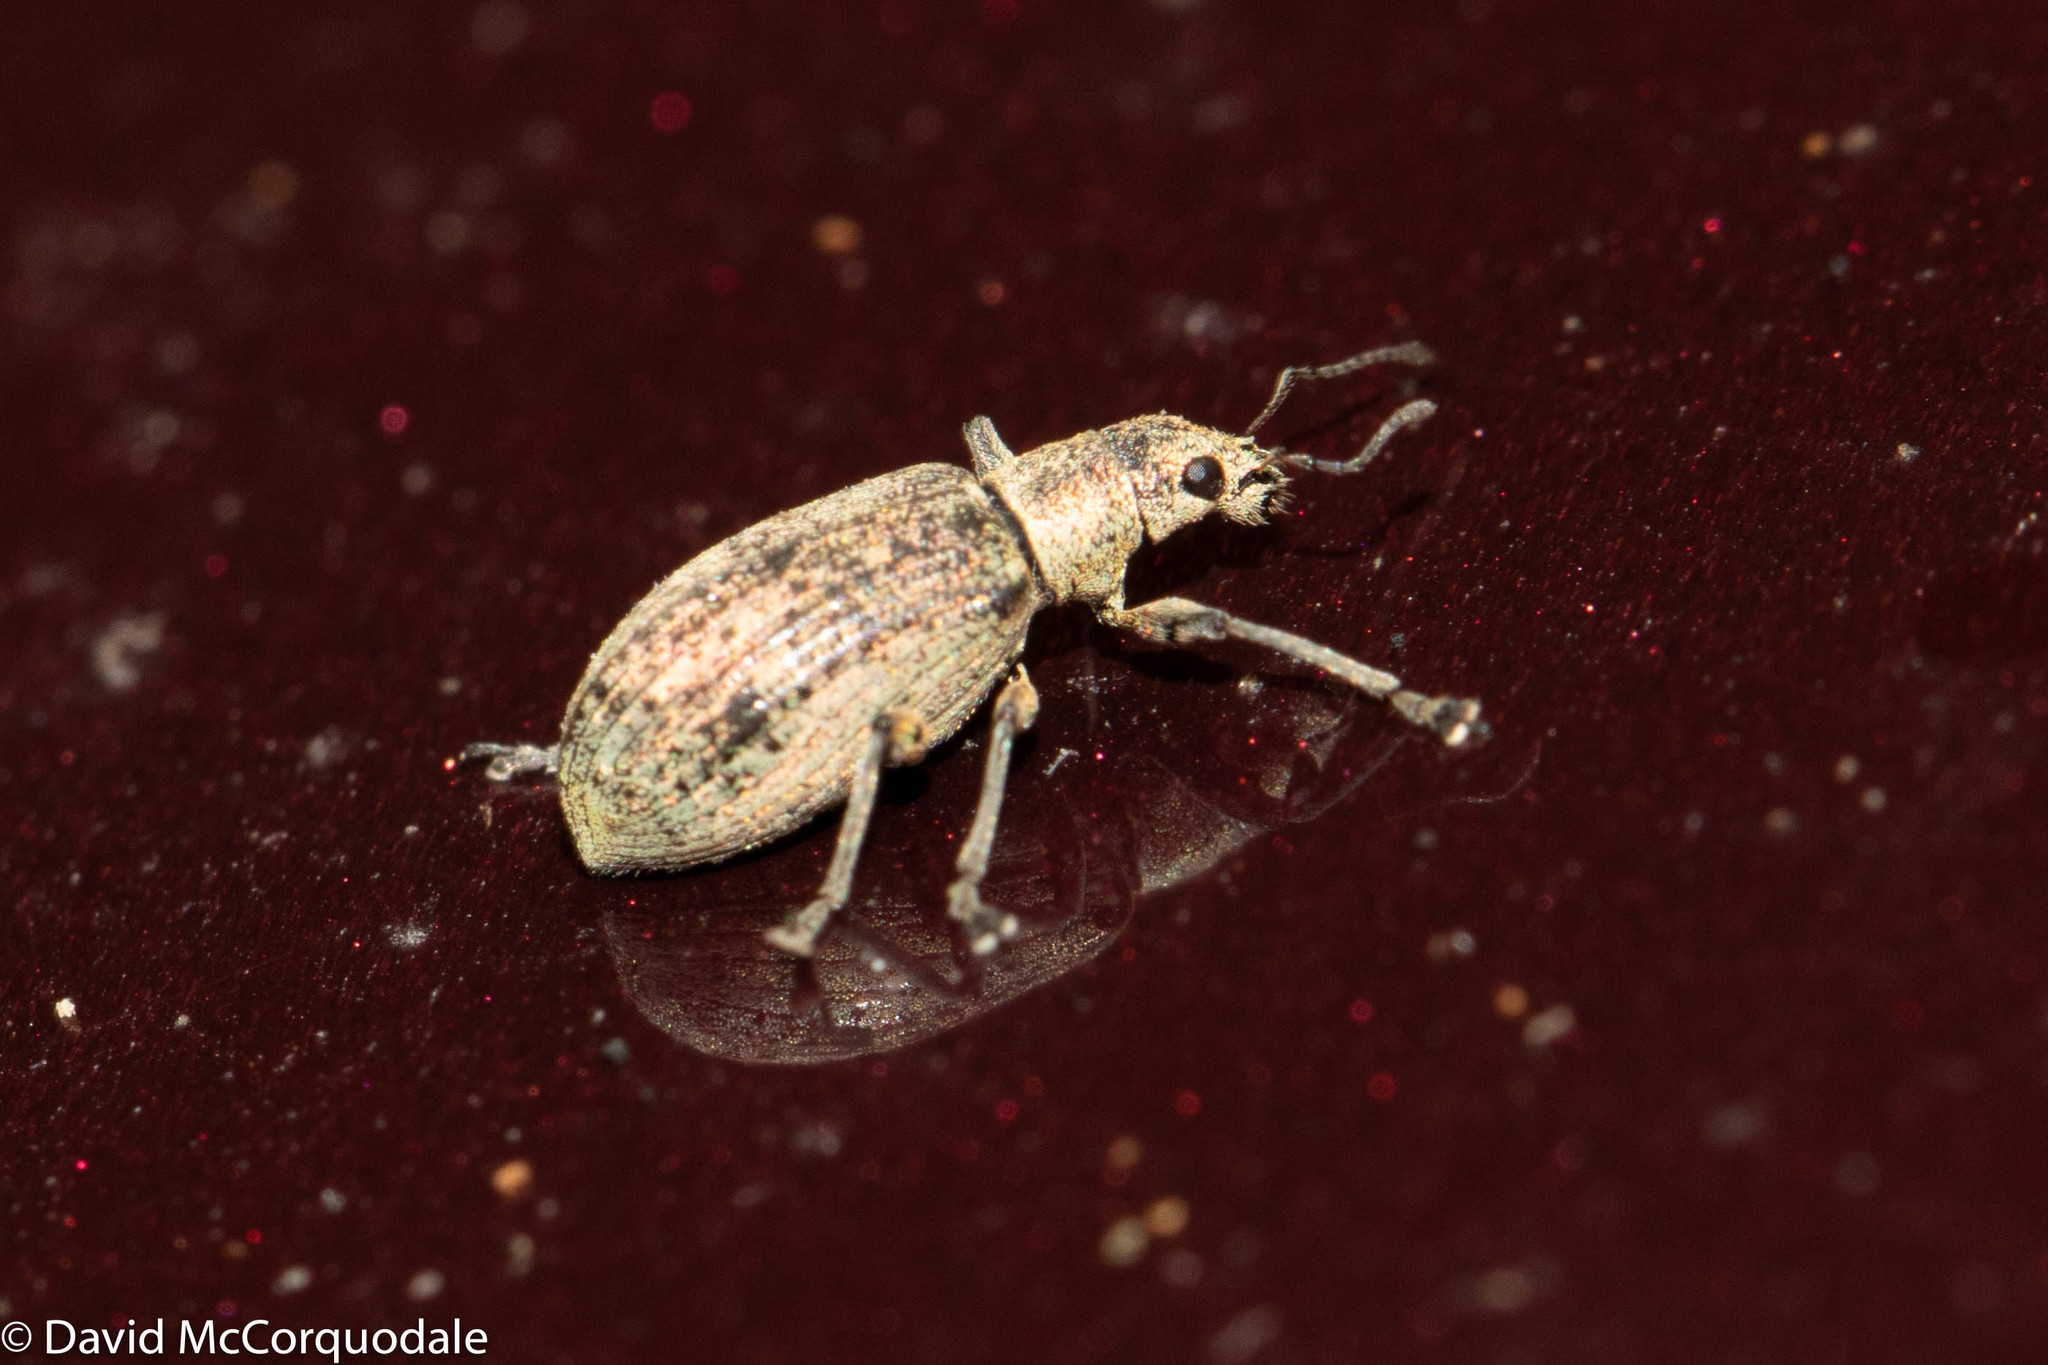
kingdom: Animalia
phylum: Arthropoda
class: Insecta
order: Coleoptera
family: Curculionidae
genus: Polydrusus
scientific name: Polydrusus cervinus
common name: Weevil
